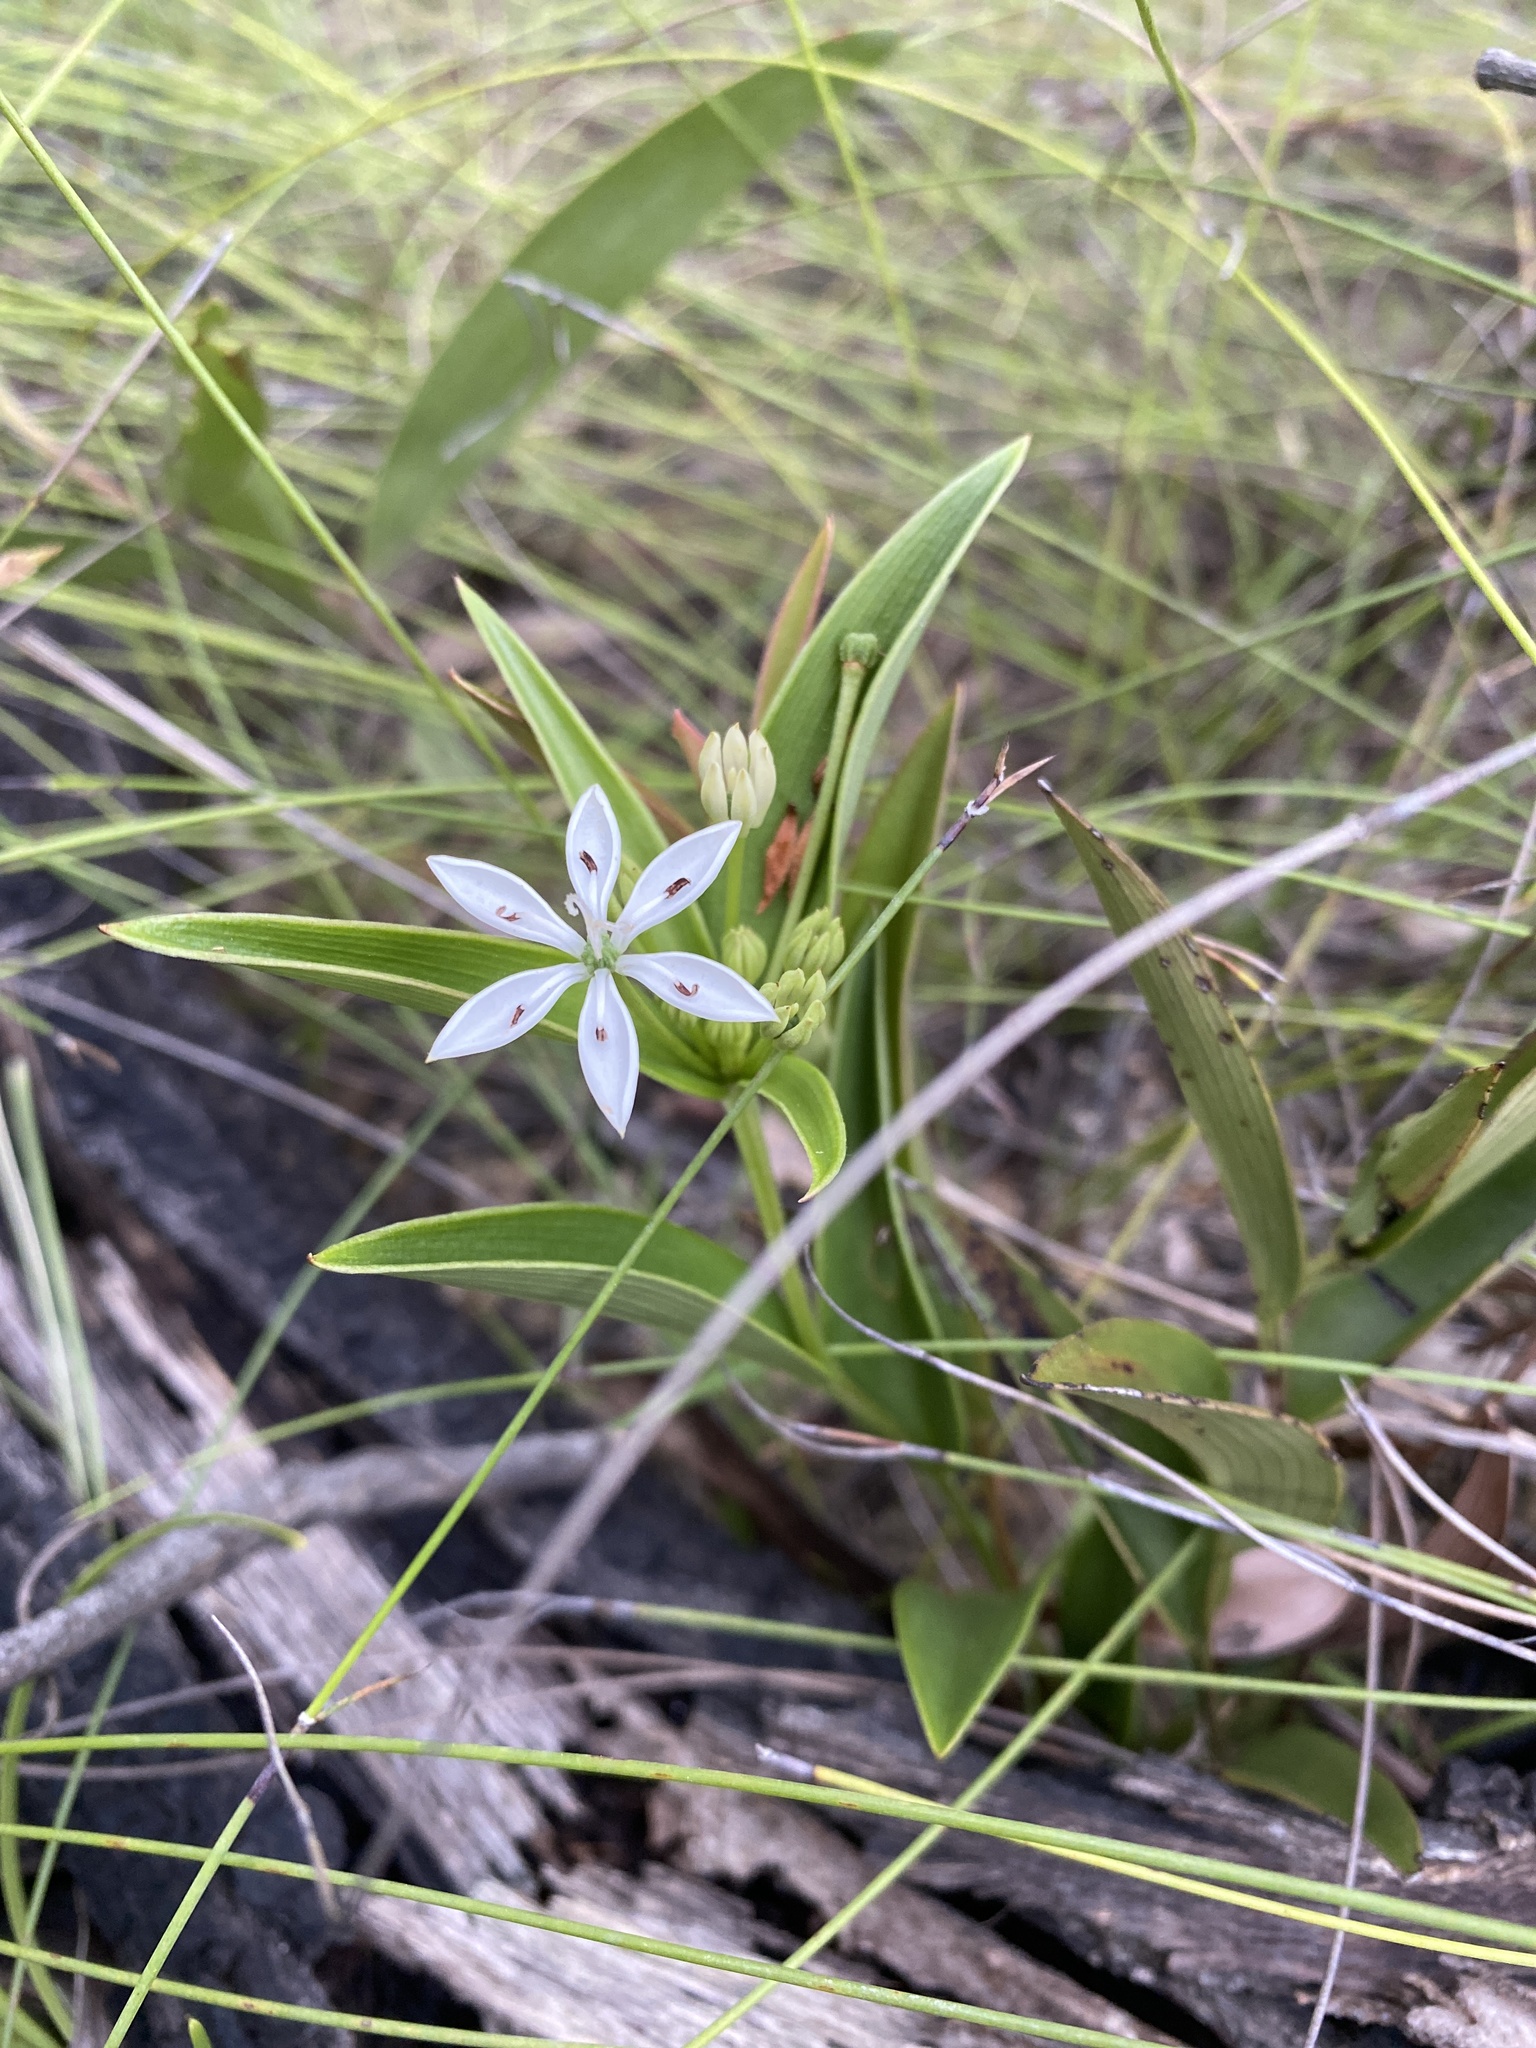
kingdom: Plantae
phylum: Tracheophyta
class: Liliopsida
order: Liliales
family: Colchicaceae
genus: Schelhammera
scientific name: Schelhammera multiflora
